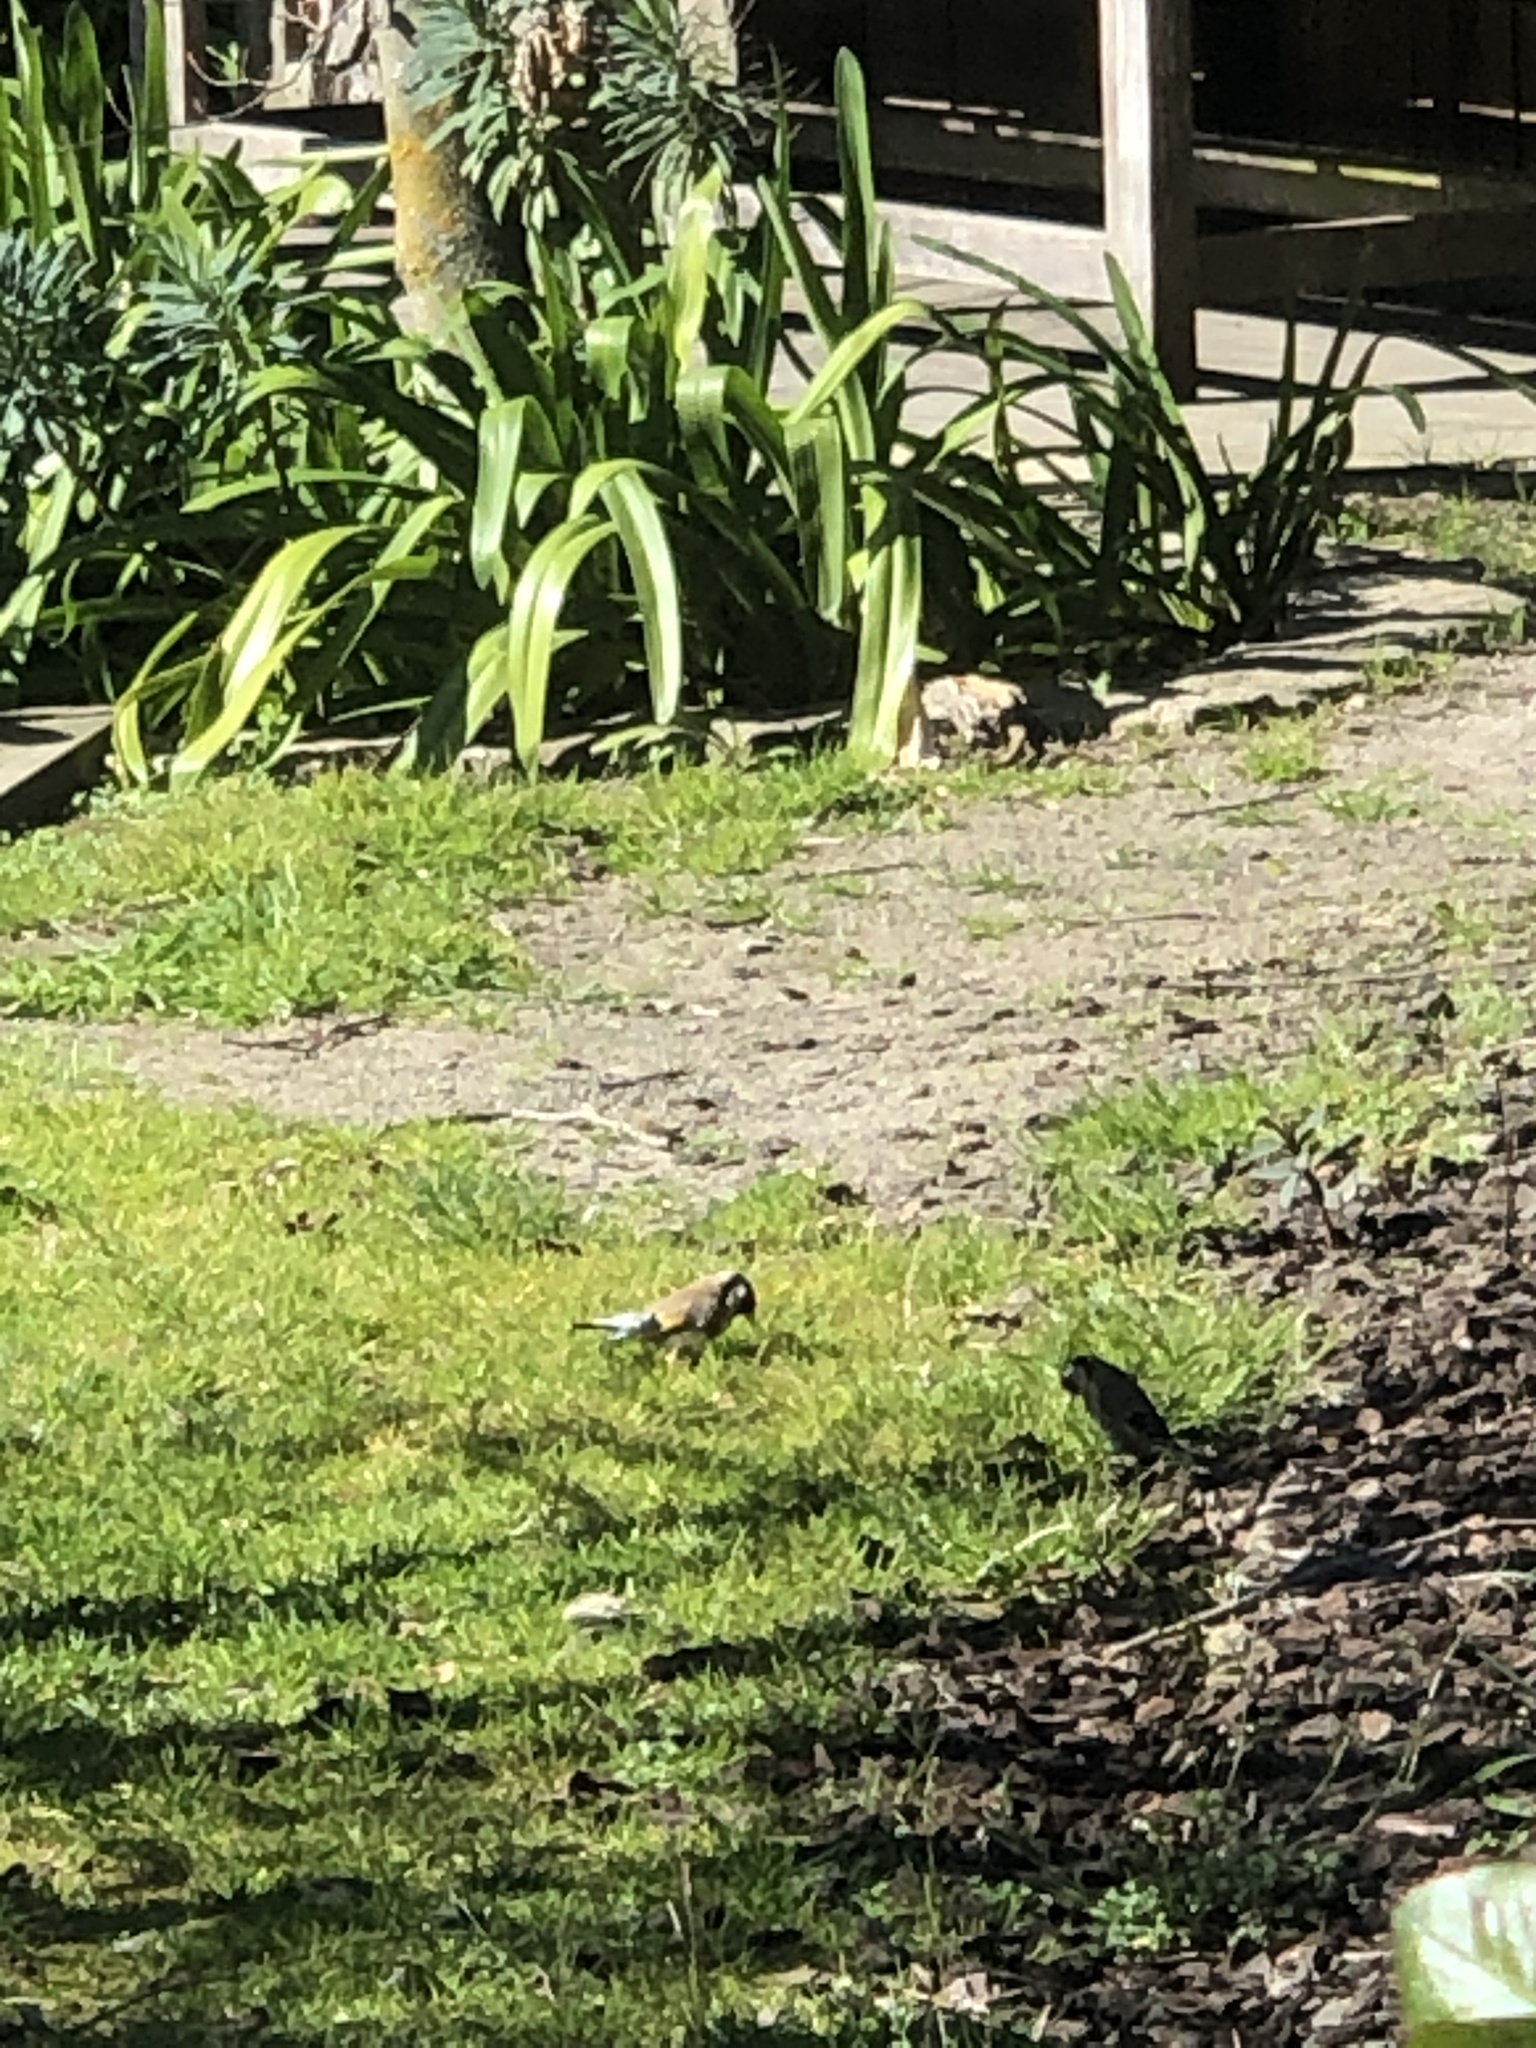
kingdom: Animalia
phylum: Chordata
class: Aves
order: Passeriformes
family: Fringillidae
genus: Carduelis
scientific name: Carduelis carduelis
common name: European goldfinch
